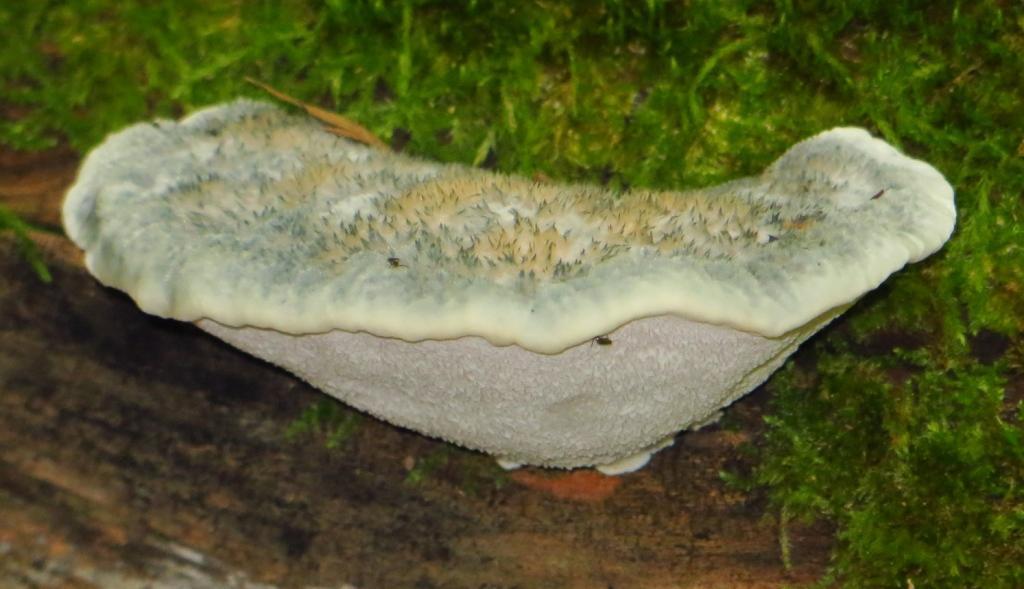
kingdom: Fungi
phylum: Basidiomycota
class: Agaricomycetes
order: Polyporales
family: Polyporaceae
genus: Cyanosporus
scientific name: Cyanosporus caesius
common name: Blue cheese polypore
